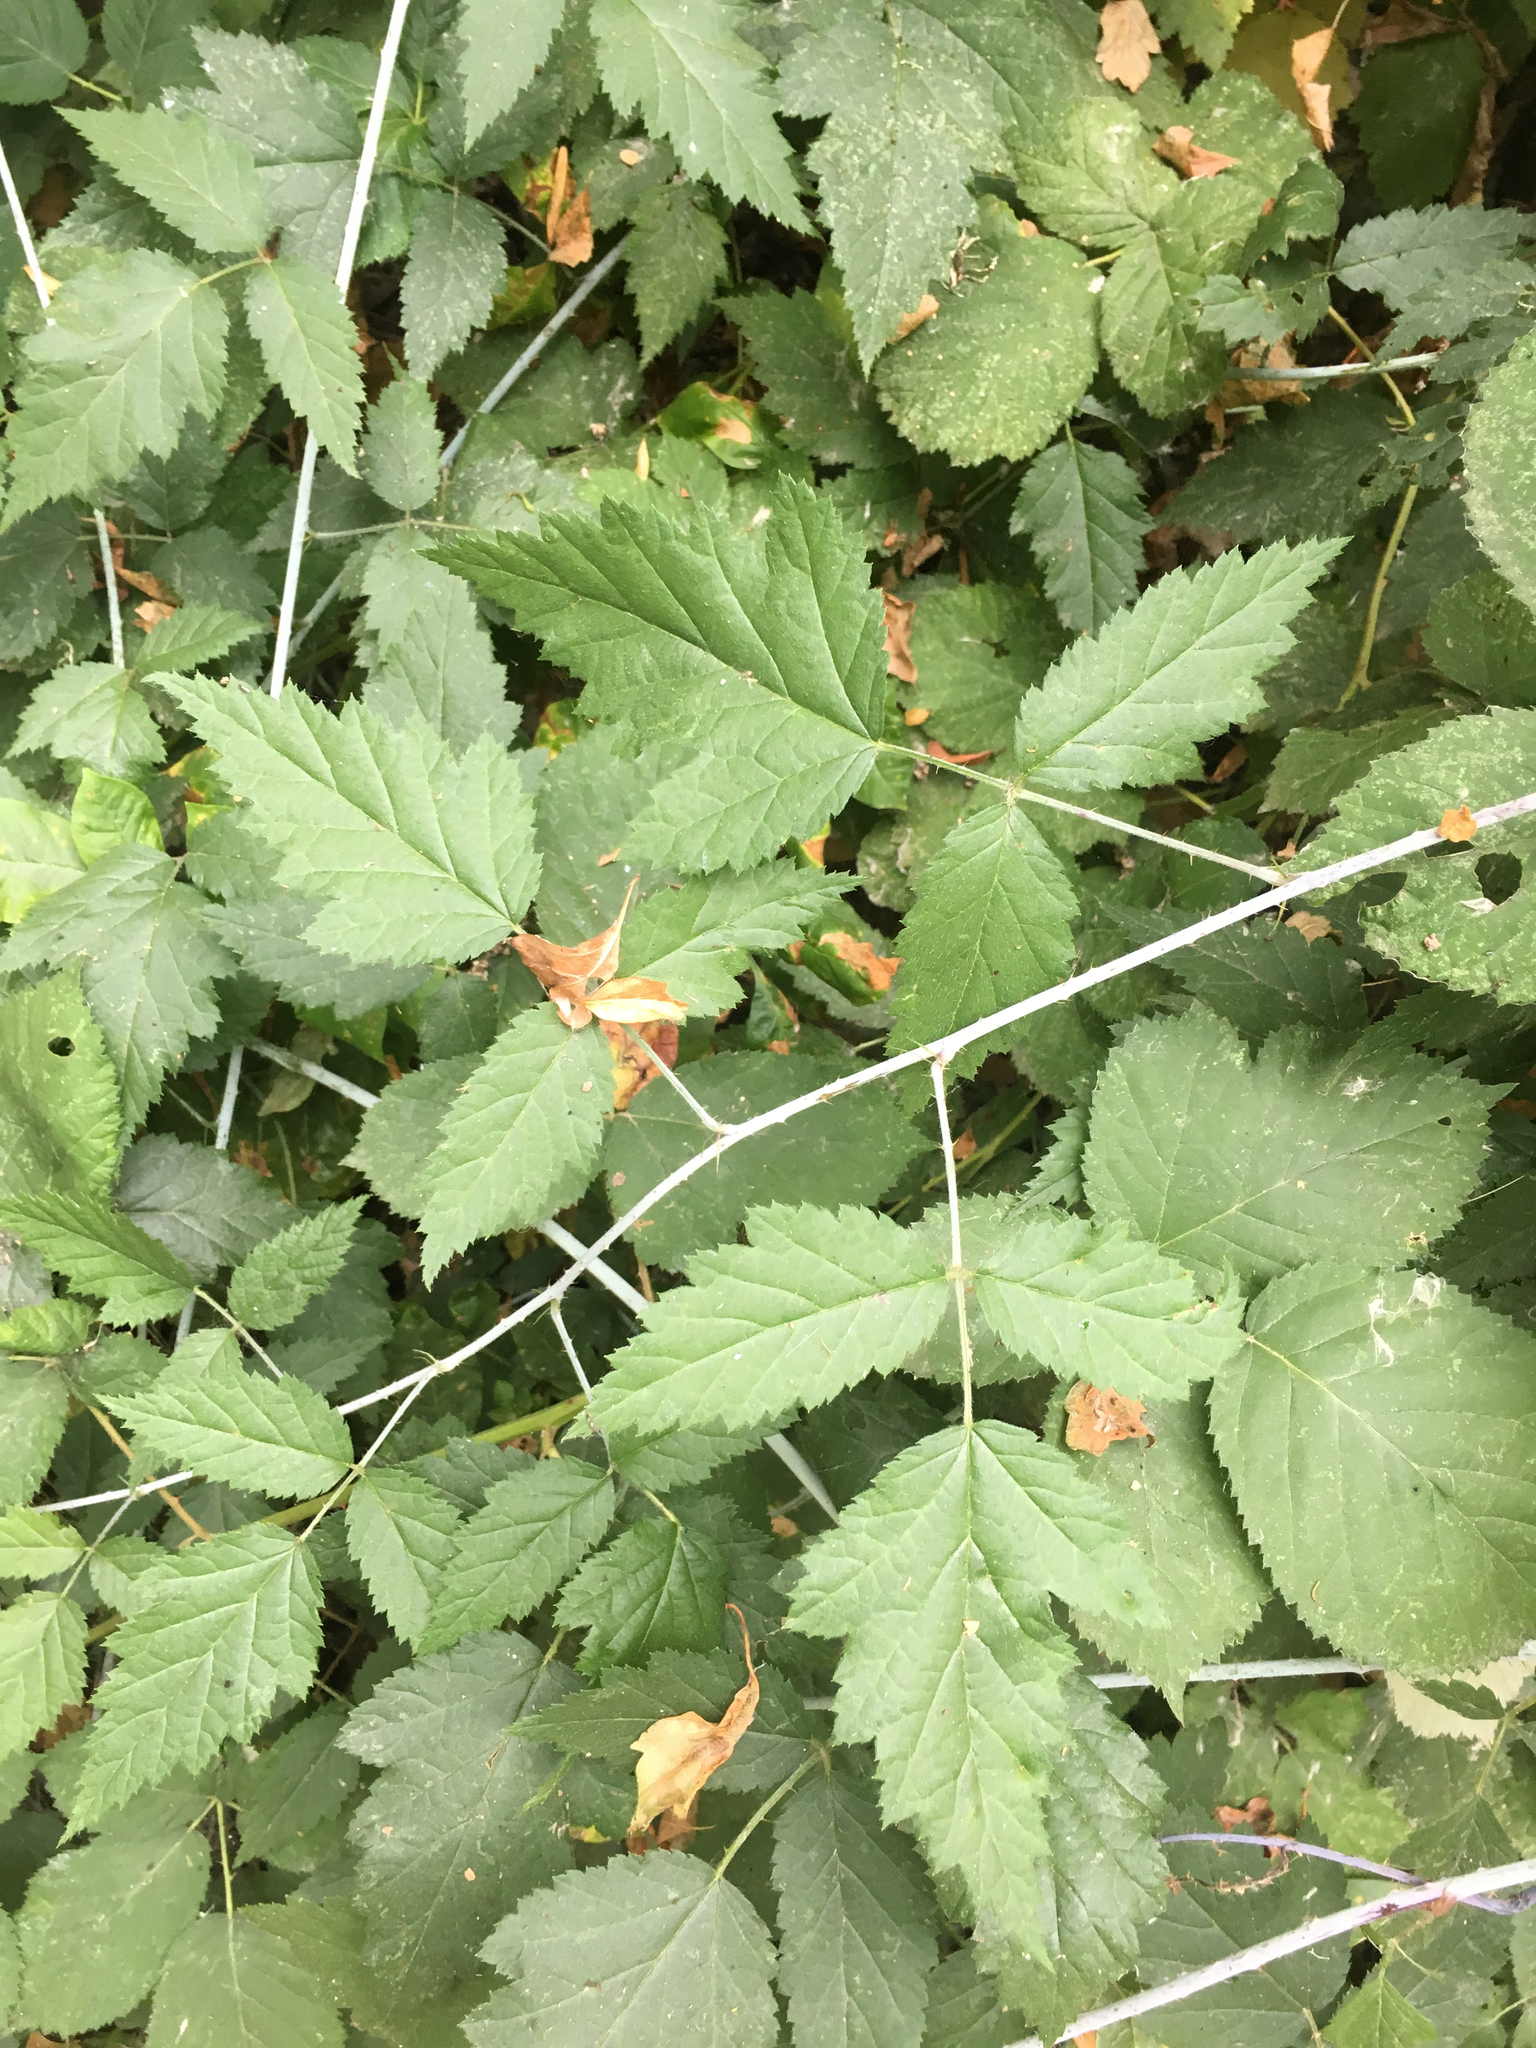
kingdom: Plantae
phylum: Tracheophyta
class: Magnoliopsida
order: Rosales
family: Rosaceae
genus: Rubus
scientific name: Rubus ursinus
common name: Pacific blackberry
